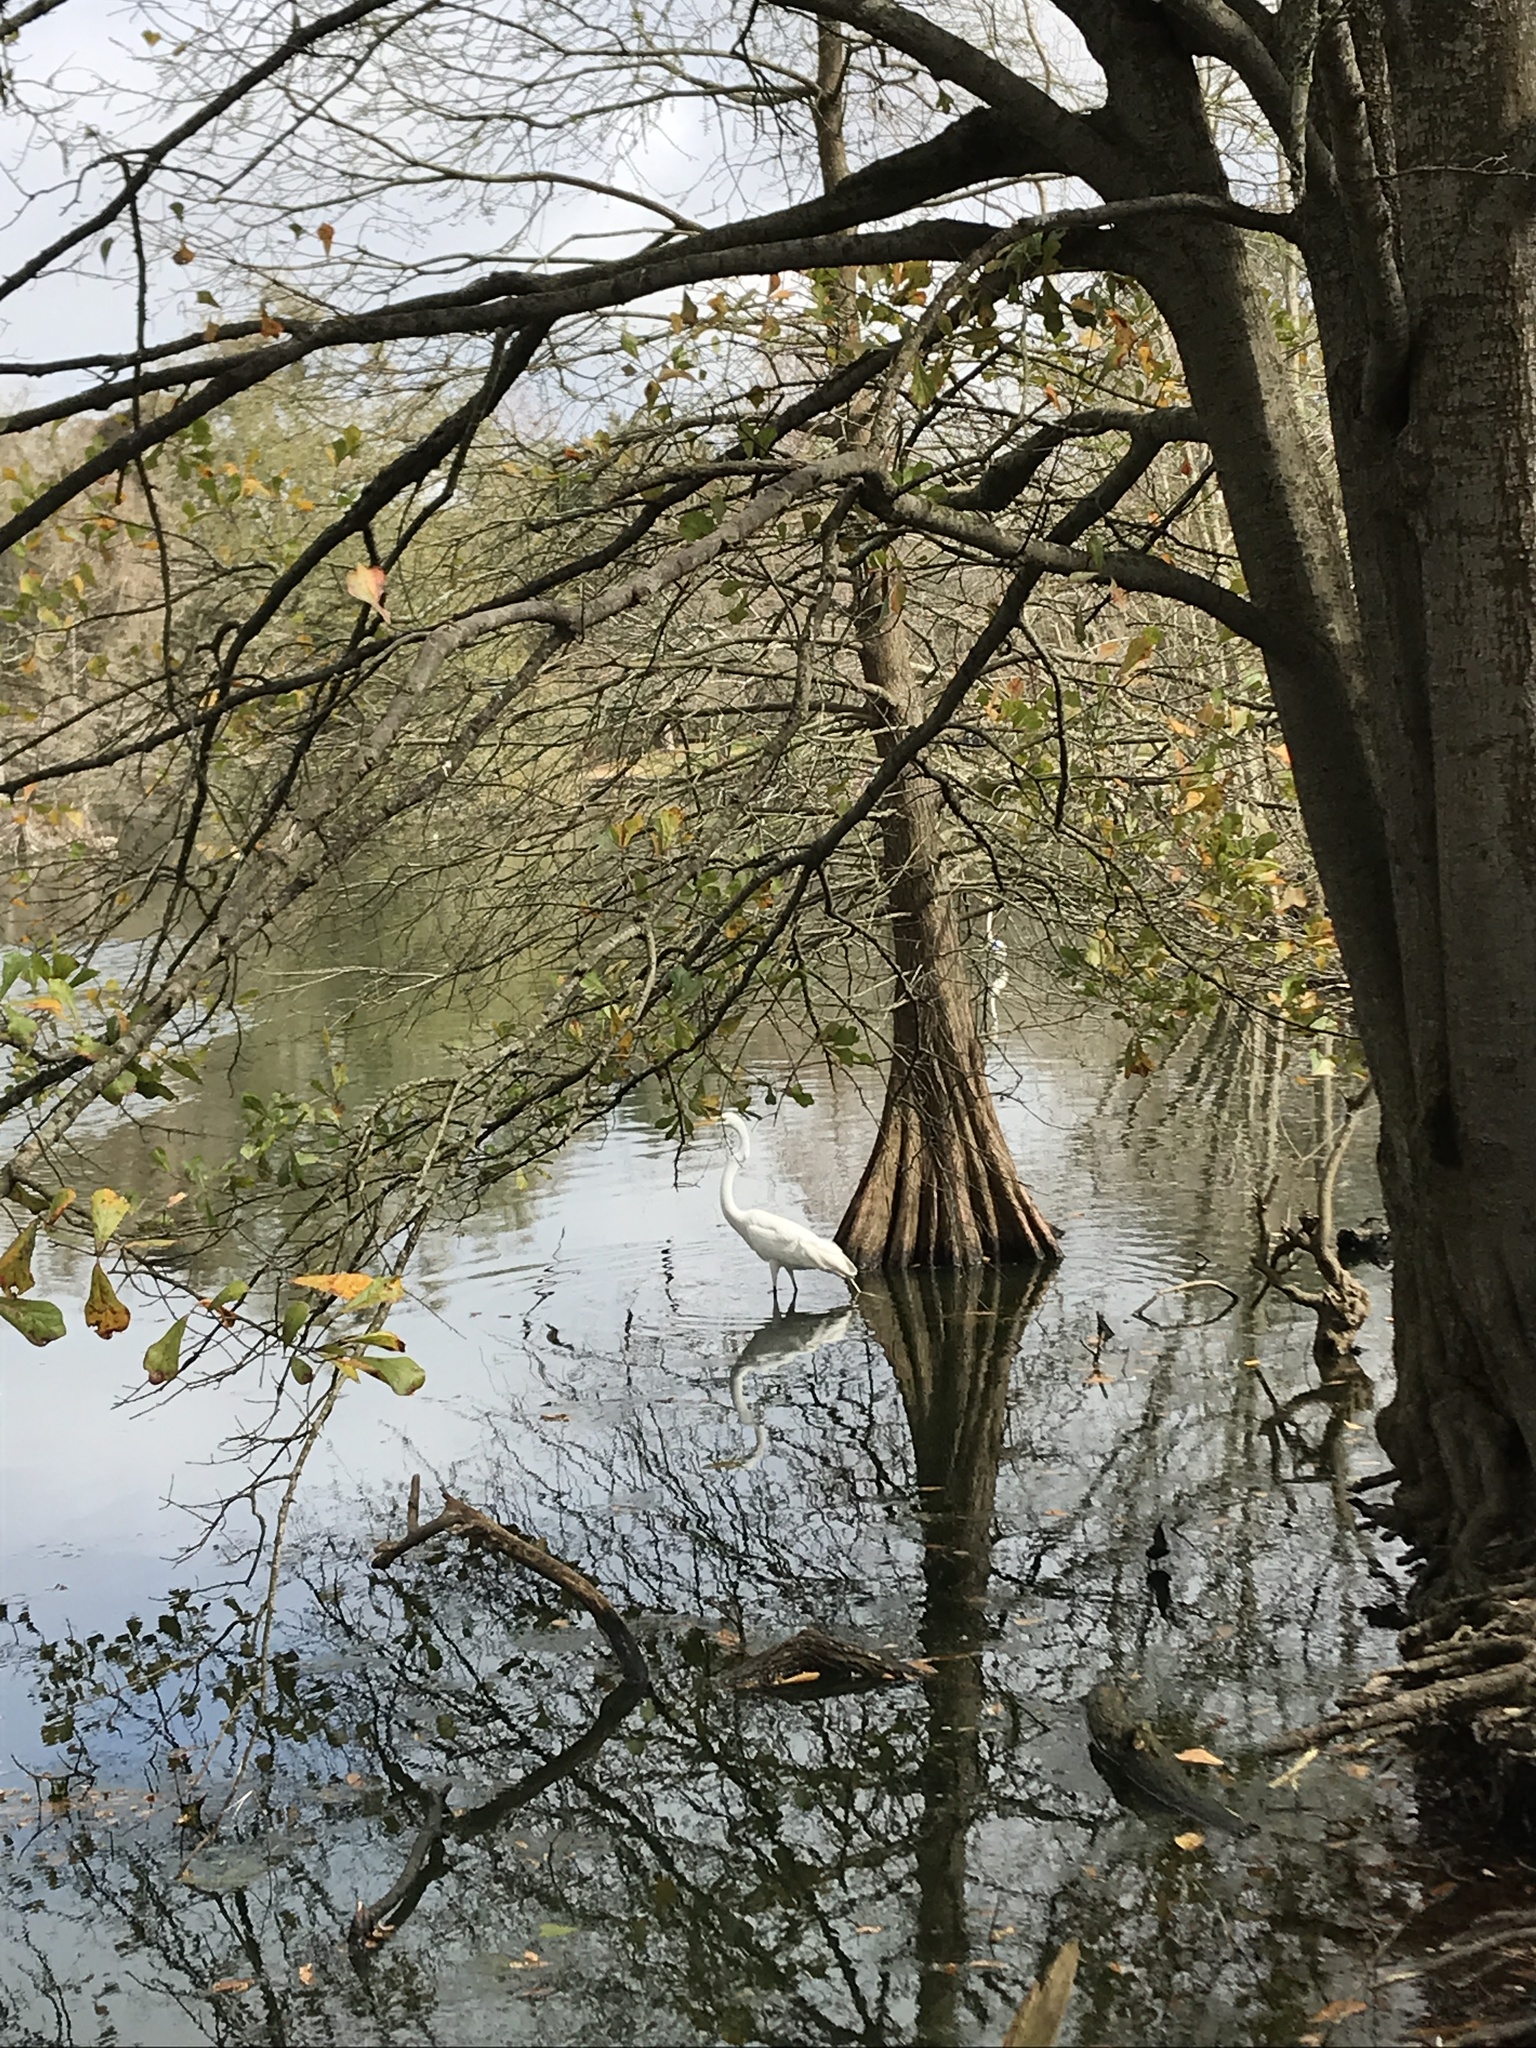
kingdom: Animalia
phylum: Chordata
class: Aves
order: Pelecaniformes
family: Ardeidae
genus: Ardea
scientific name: Ardea alba
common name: Great egret
